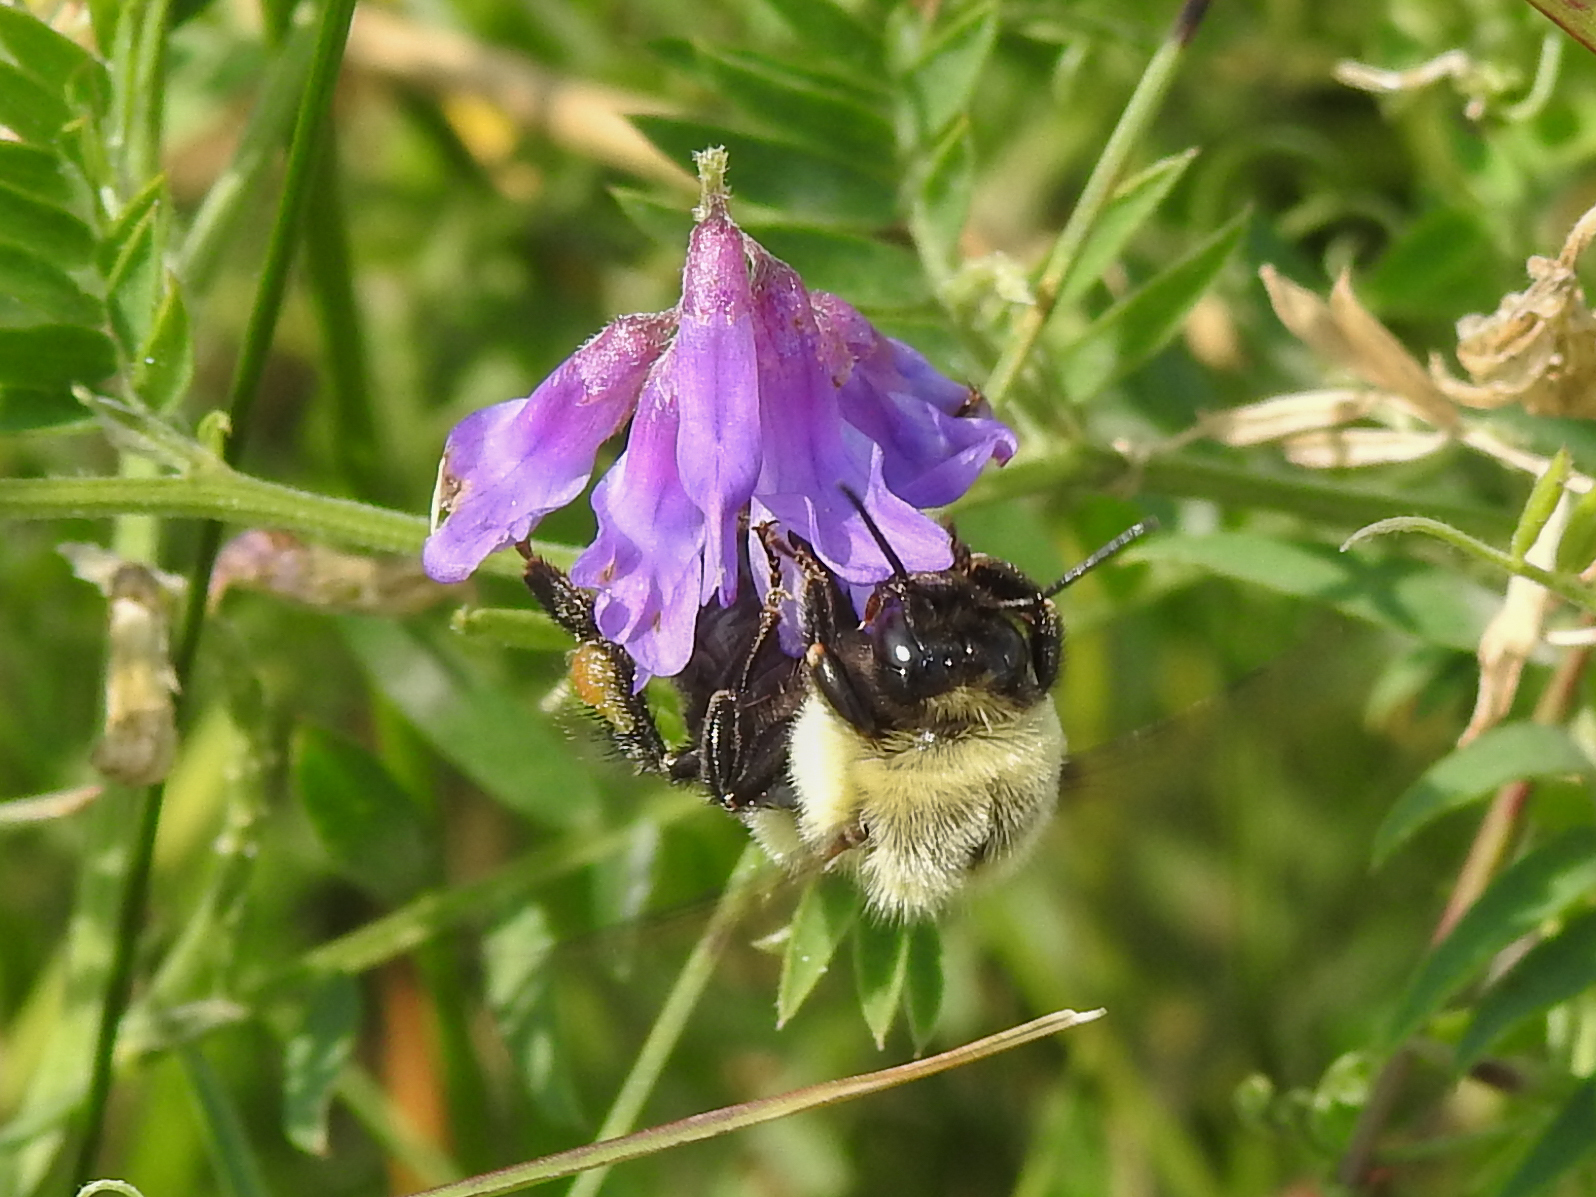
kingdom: Animalia
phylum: Arthropoda
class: Insecta
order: Hymenoptera
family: Apidae
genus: Bombus
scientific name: Bombus impatiens
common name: Common eastern bumble bee
